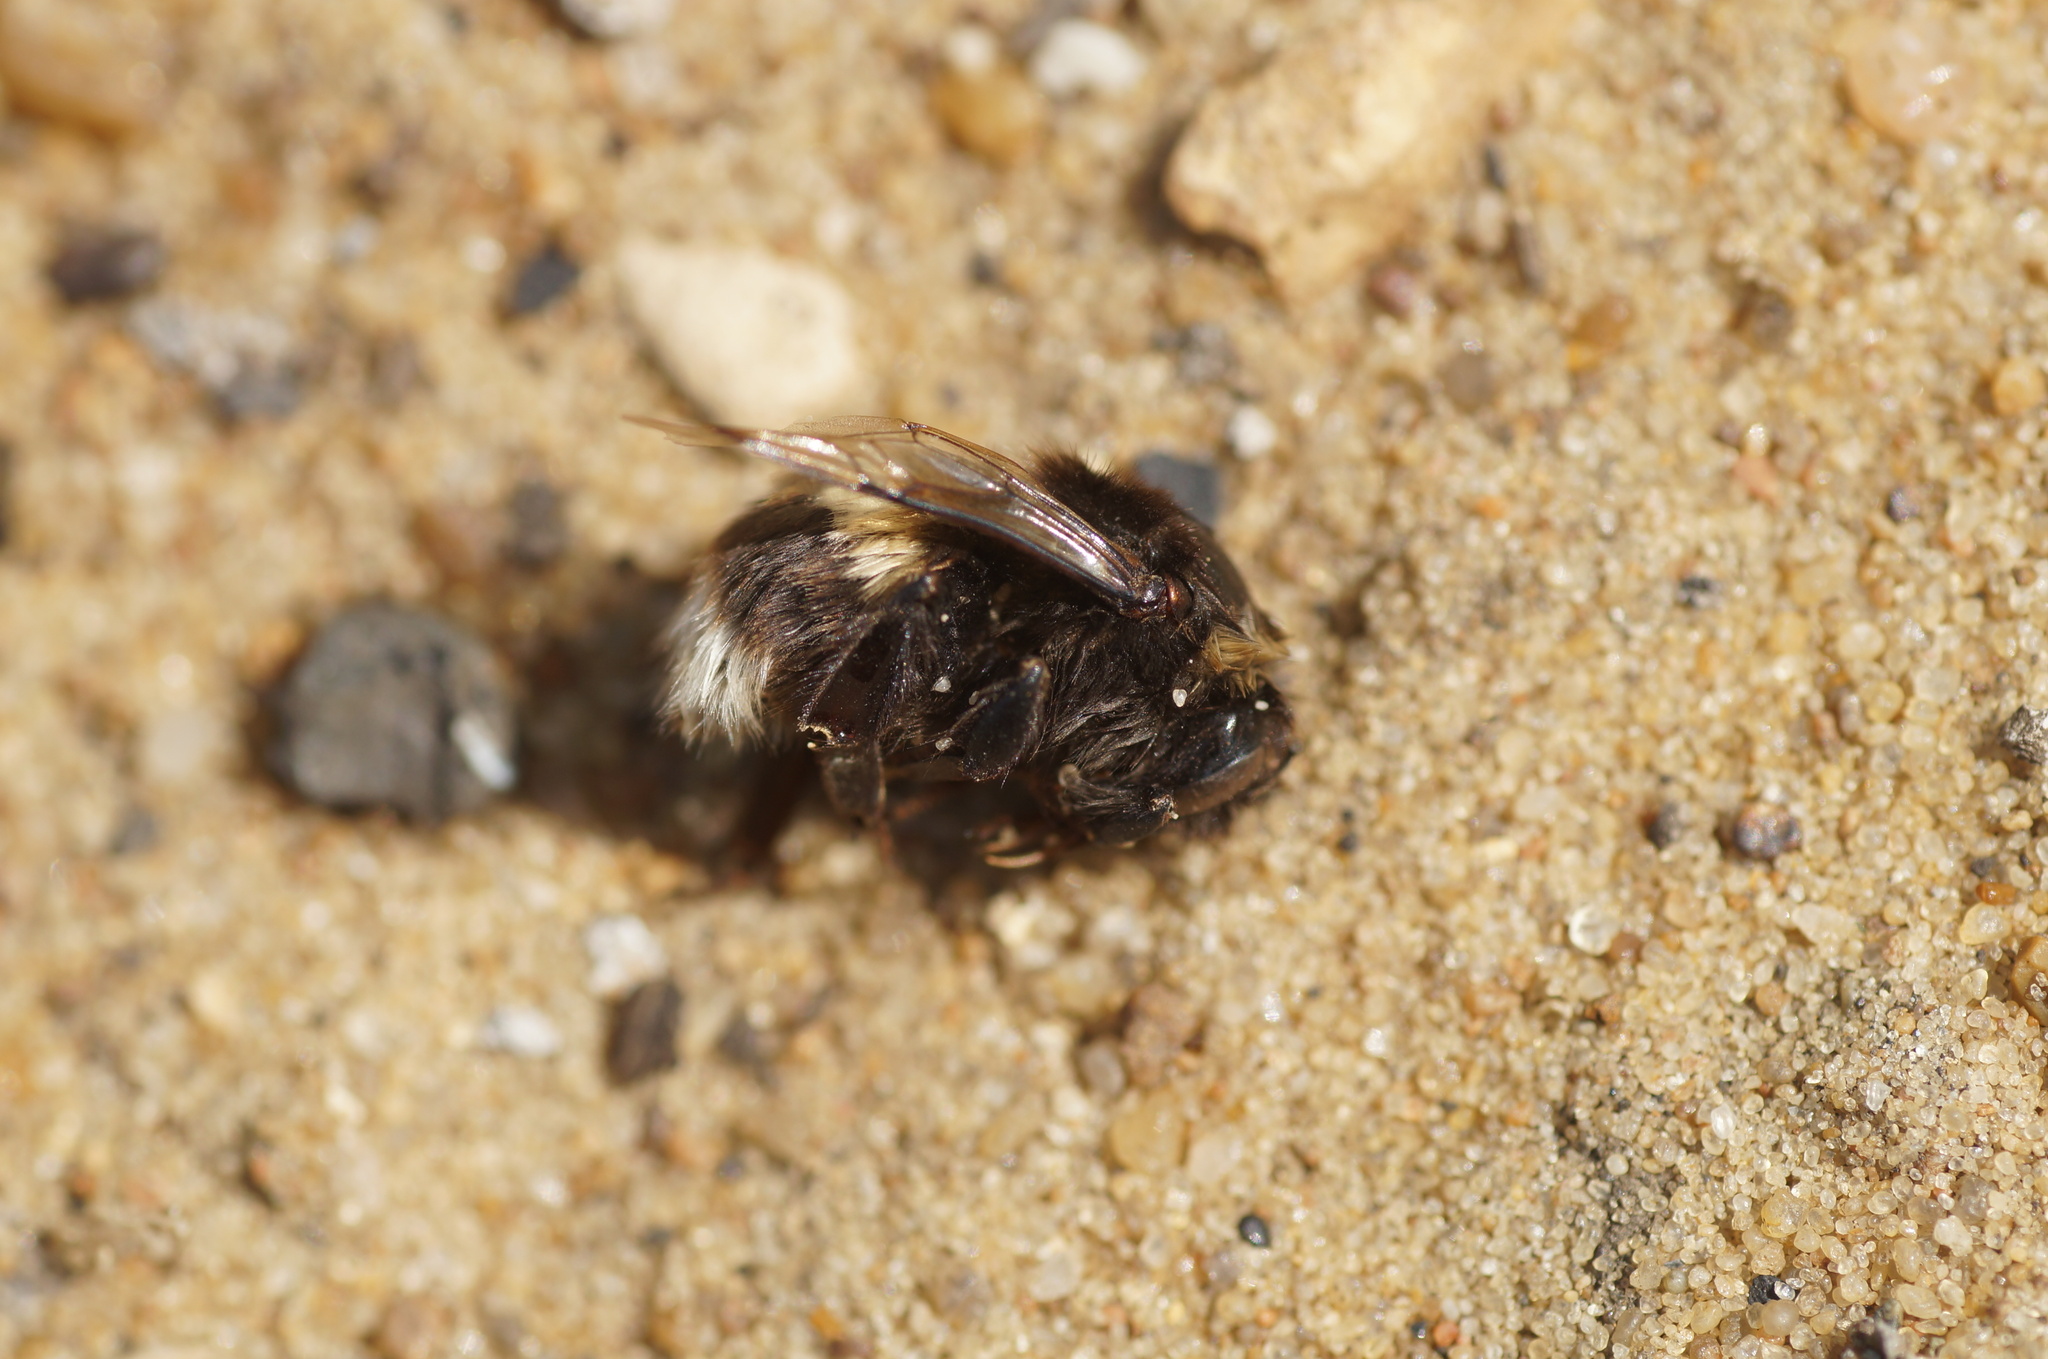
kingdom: Animalia
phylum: Arthropoda
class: Insecta
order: Hymenoptera
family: Apidae
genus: Bombus
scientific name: Bombus
